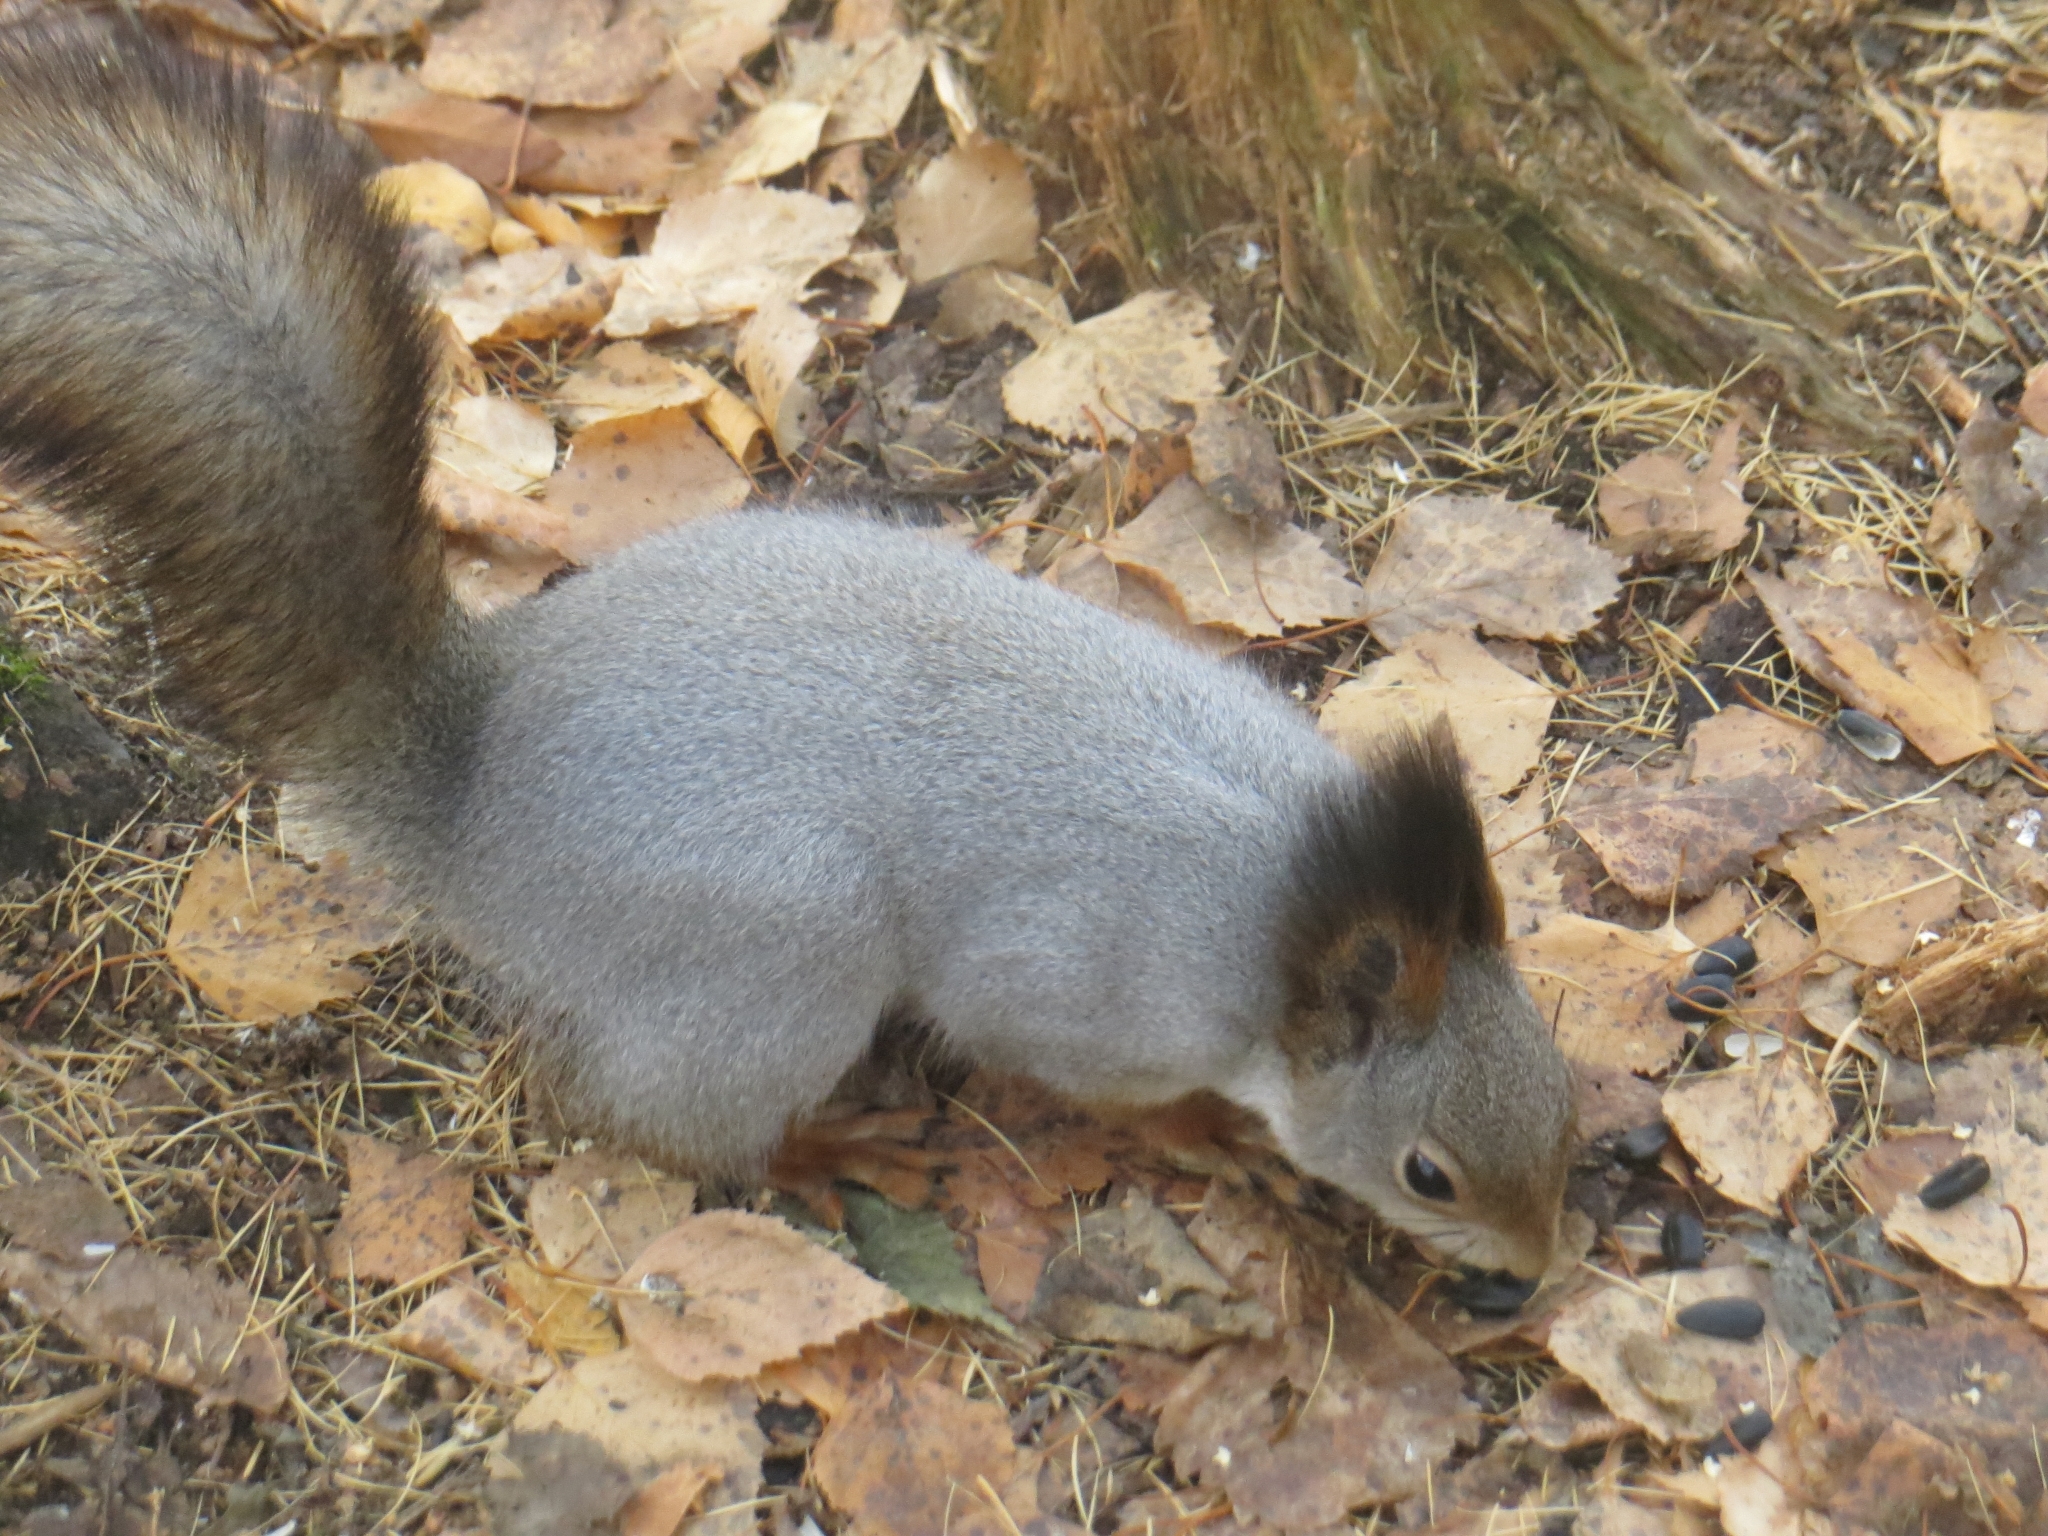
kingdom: Animalia
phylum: Chordata
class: Mammalia
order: Rodentia
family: Sciuridae
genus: Sciurus
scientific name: Sciurus vulgaris
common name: Eurasian red squirrel
